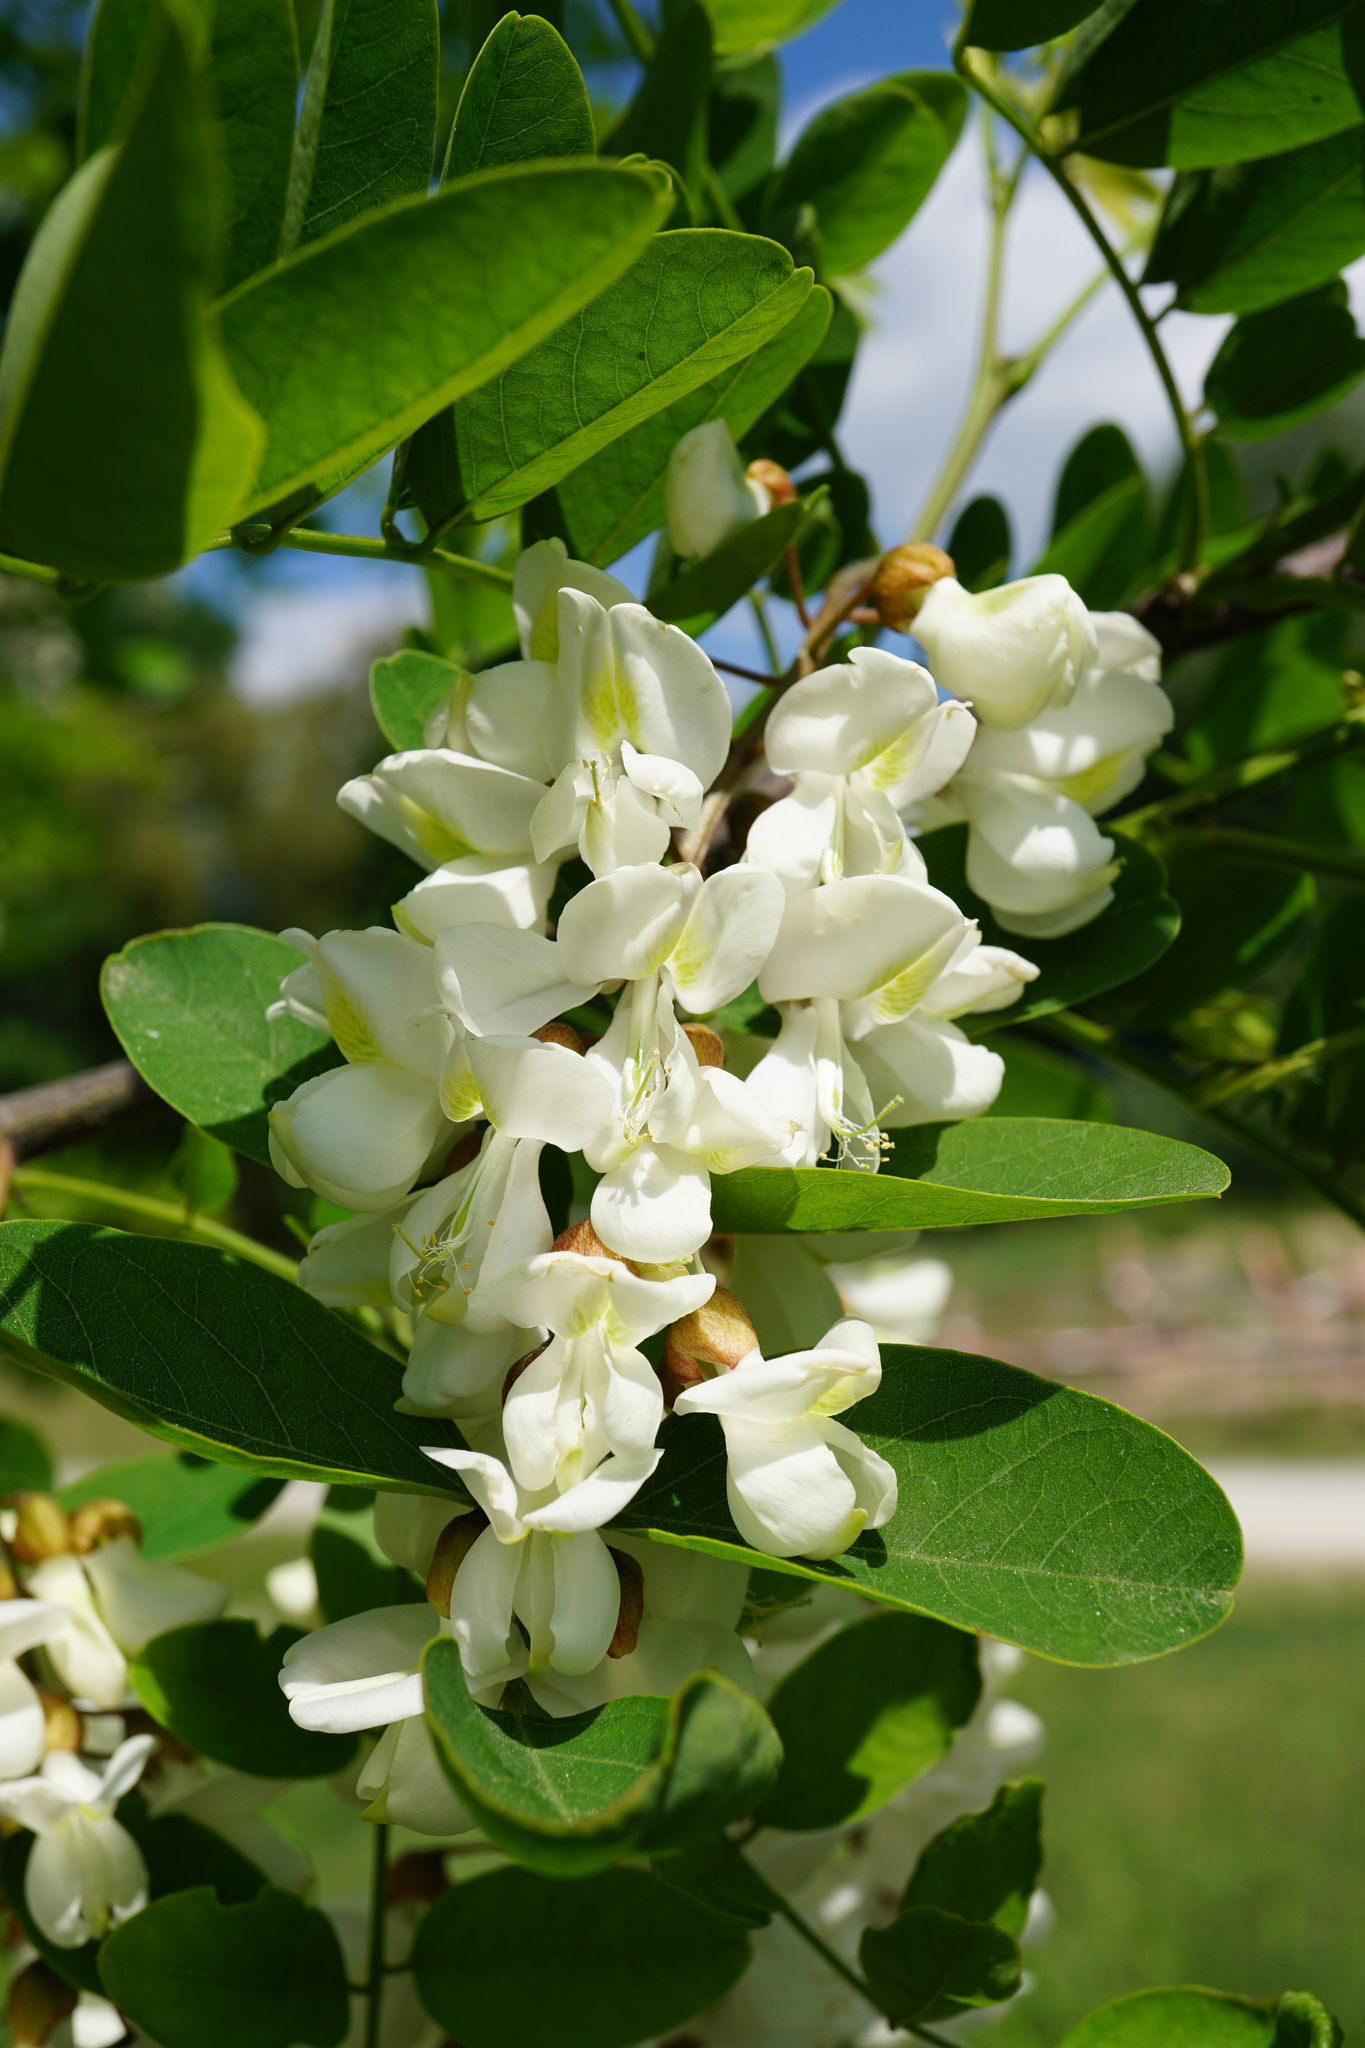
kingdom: Plantae
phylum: Tracheophyta
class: Magnoliopsida
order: Fabales
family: Fabaceae
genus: Robinia
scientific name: Robinia pseudoacacia
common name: Black locust
